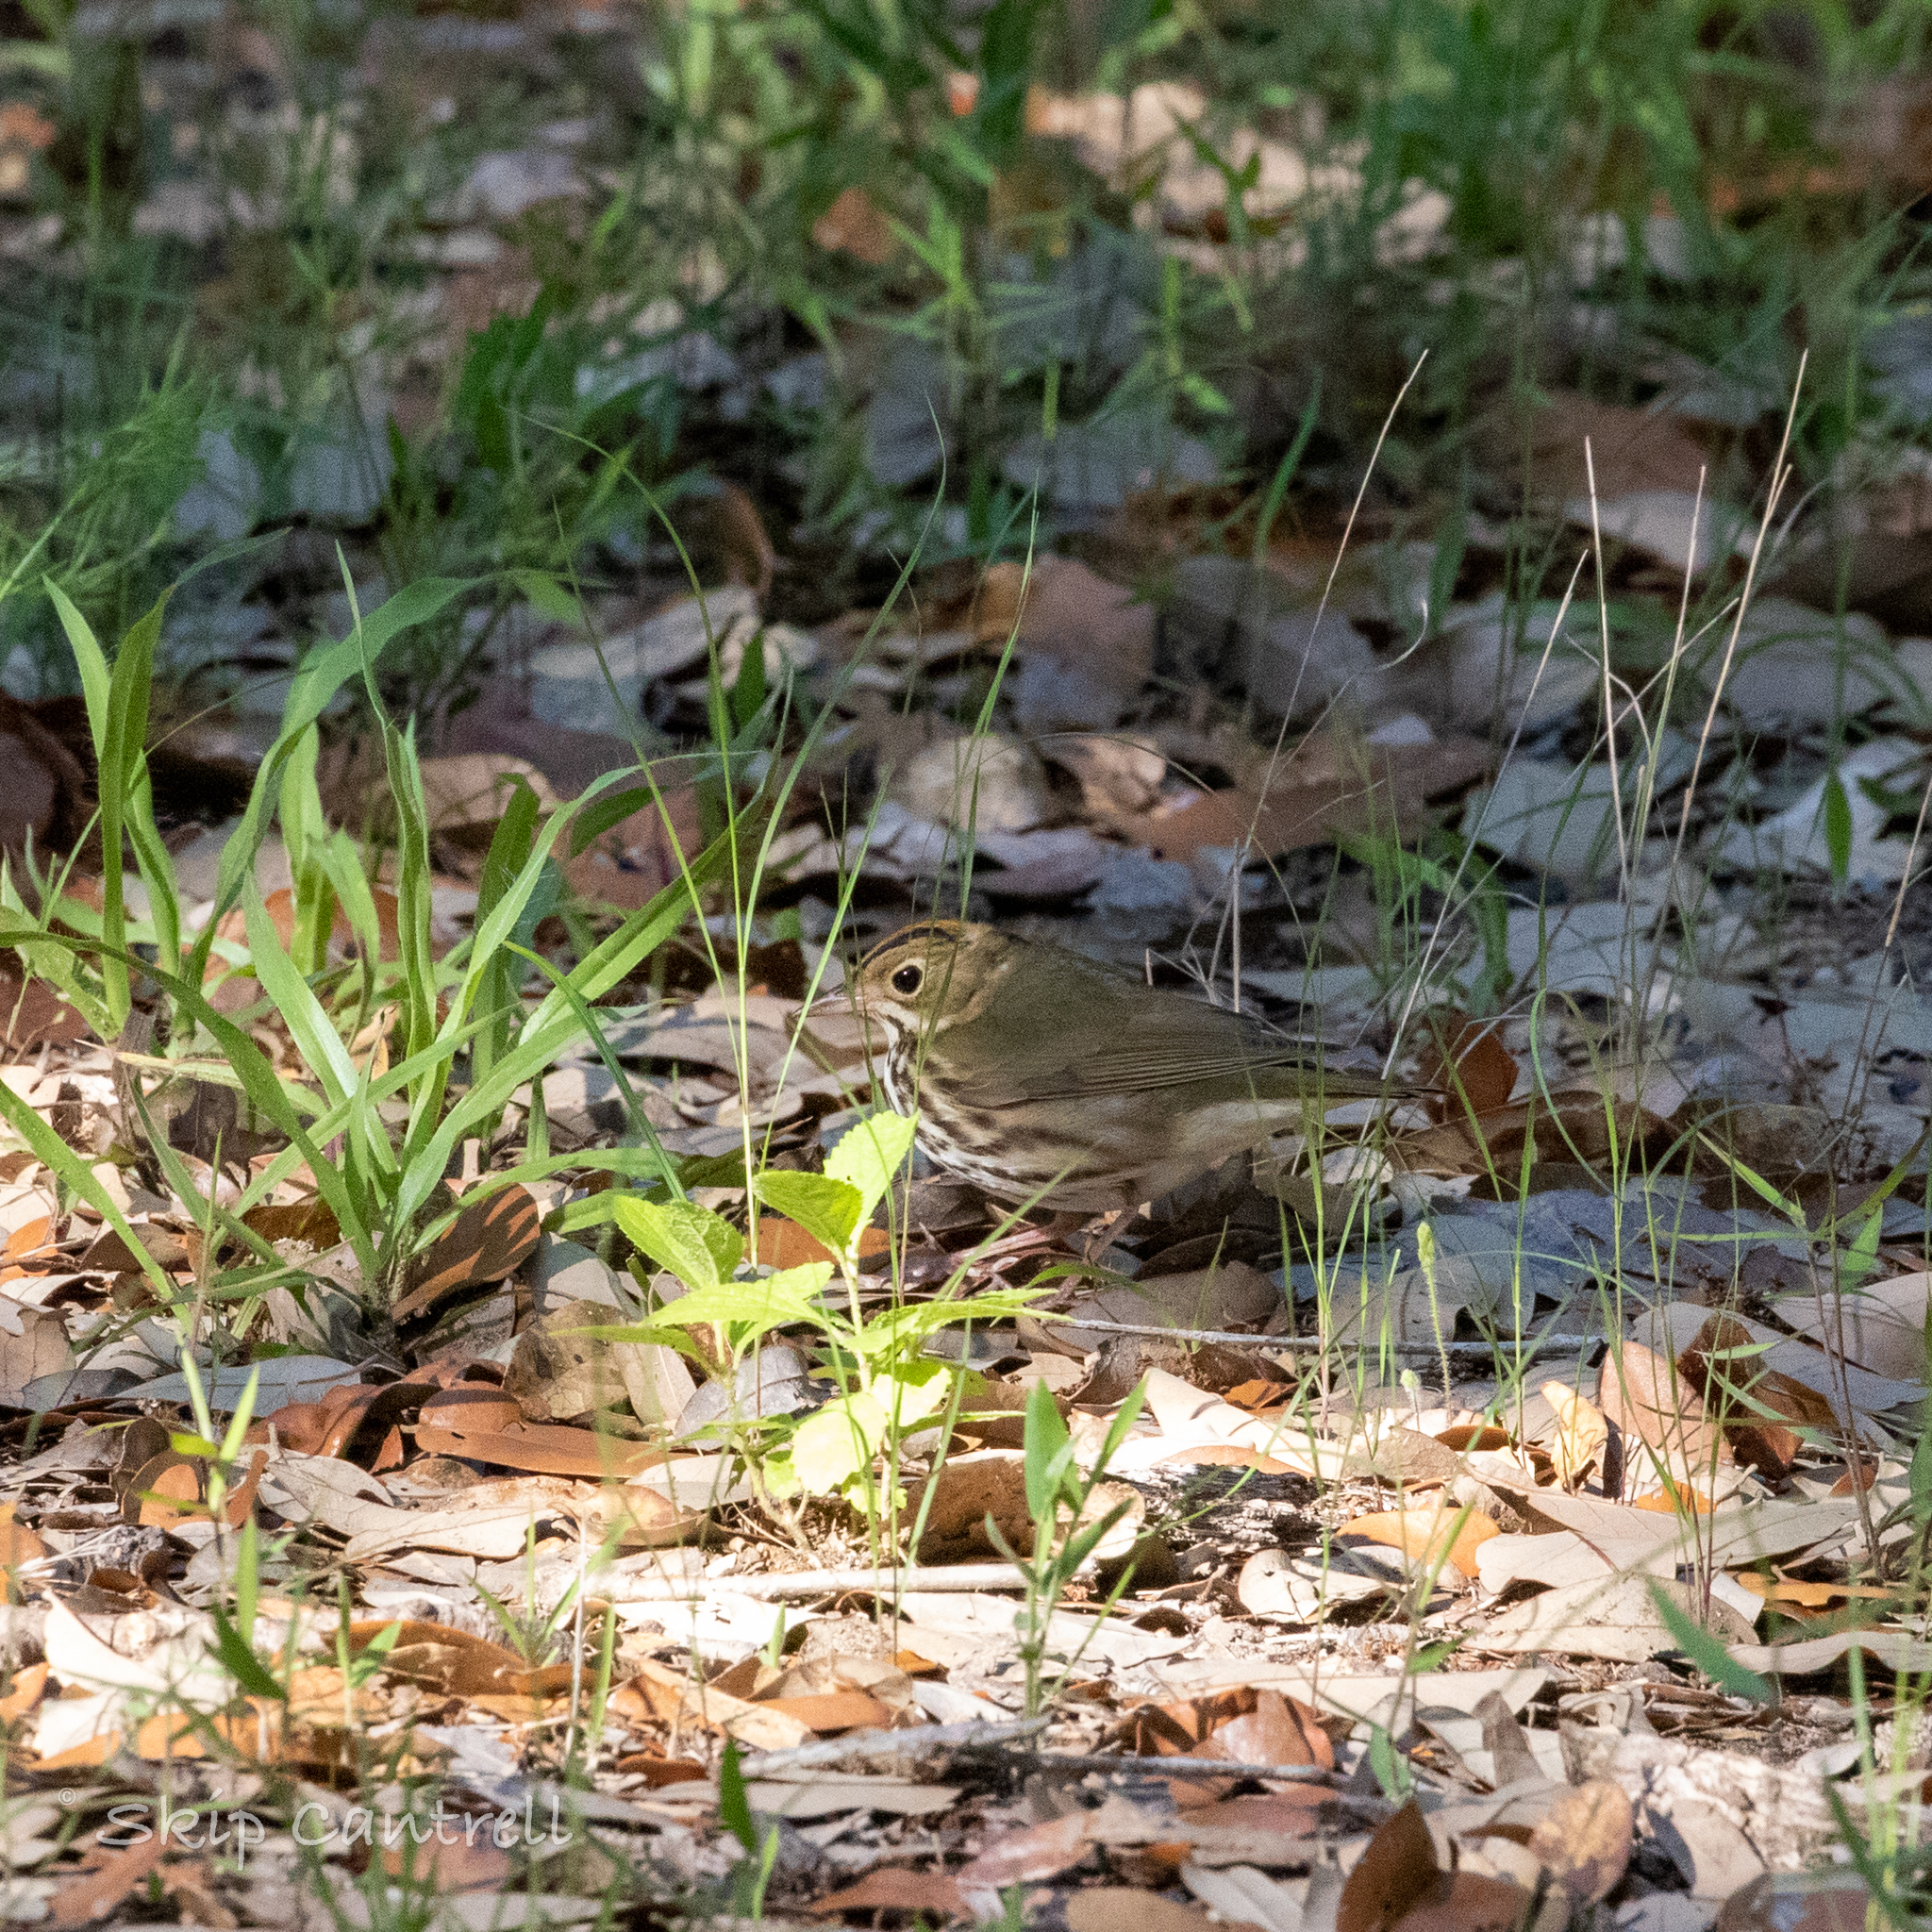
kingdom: Animalia
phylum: Chordata
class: Aves
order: Passeriformes
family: Parulidae
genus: Seiurus
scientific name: Seiurus aurocapilla
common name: Ovenbird
